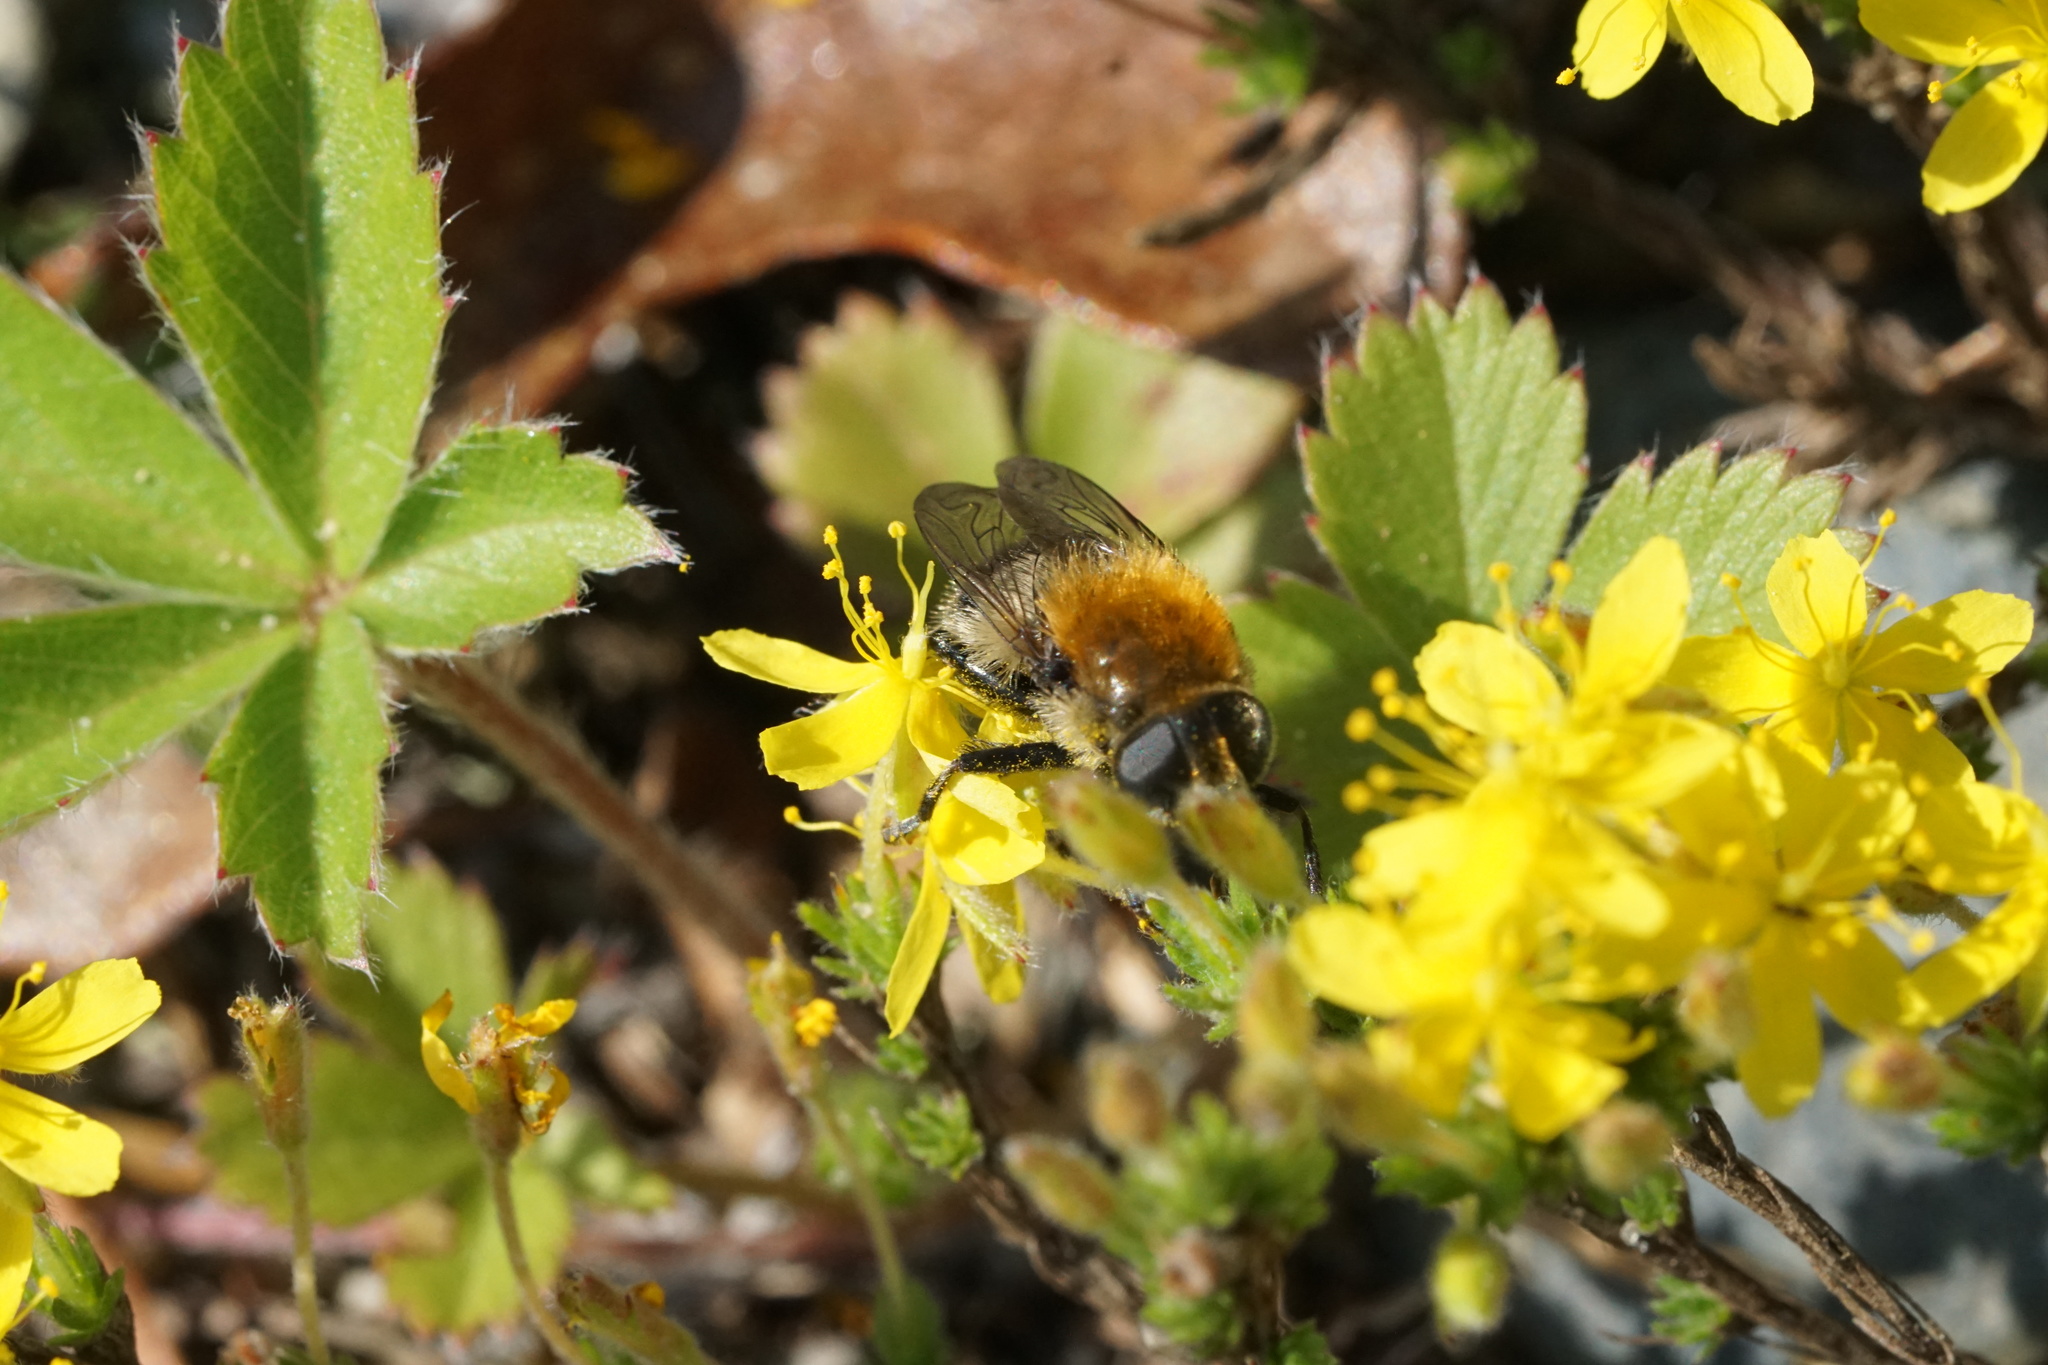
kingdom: Animalia
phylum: Arthropoda
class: Insecta
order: Diptera
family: Syrphidae
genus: Merodon
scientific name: Merodon equestris
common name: Greater bulb-fly
